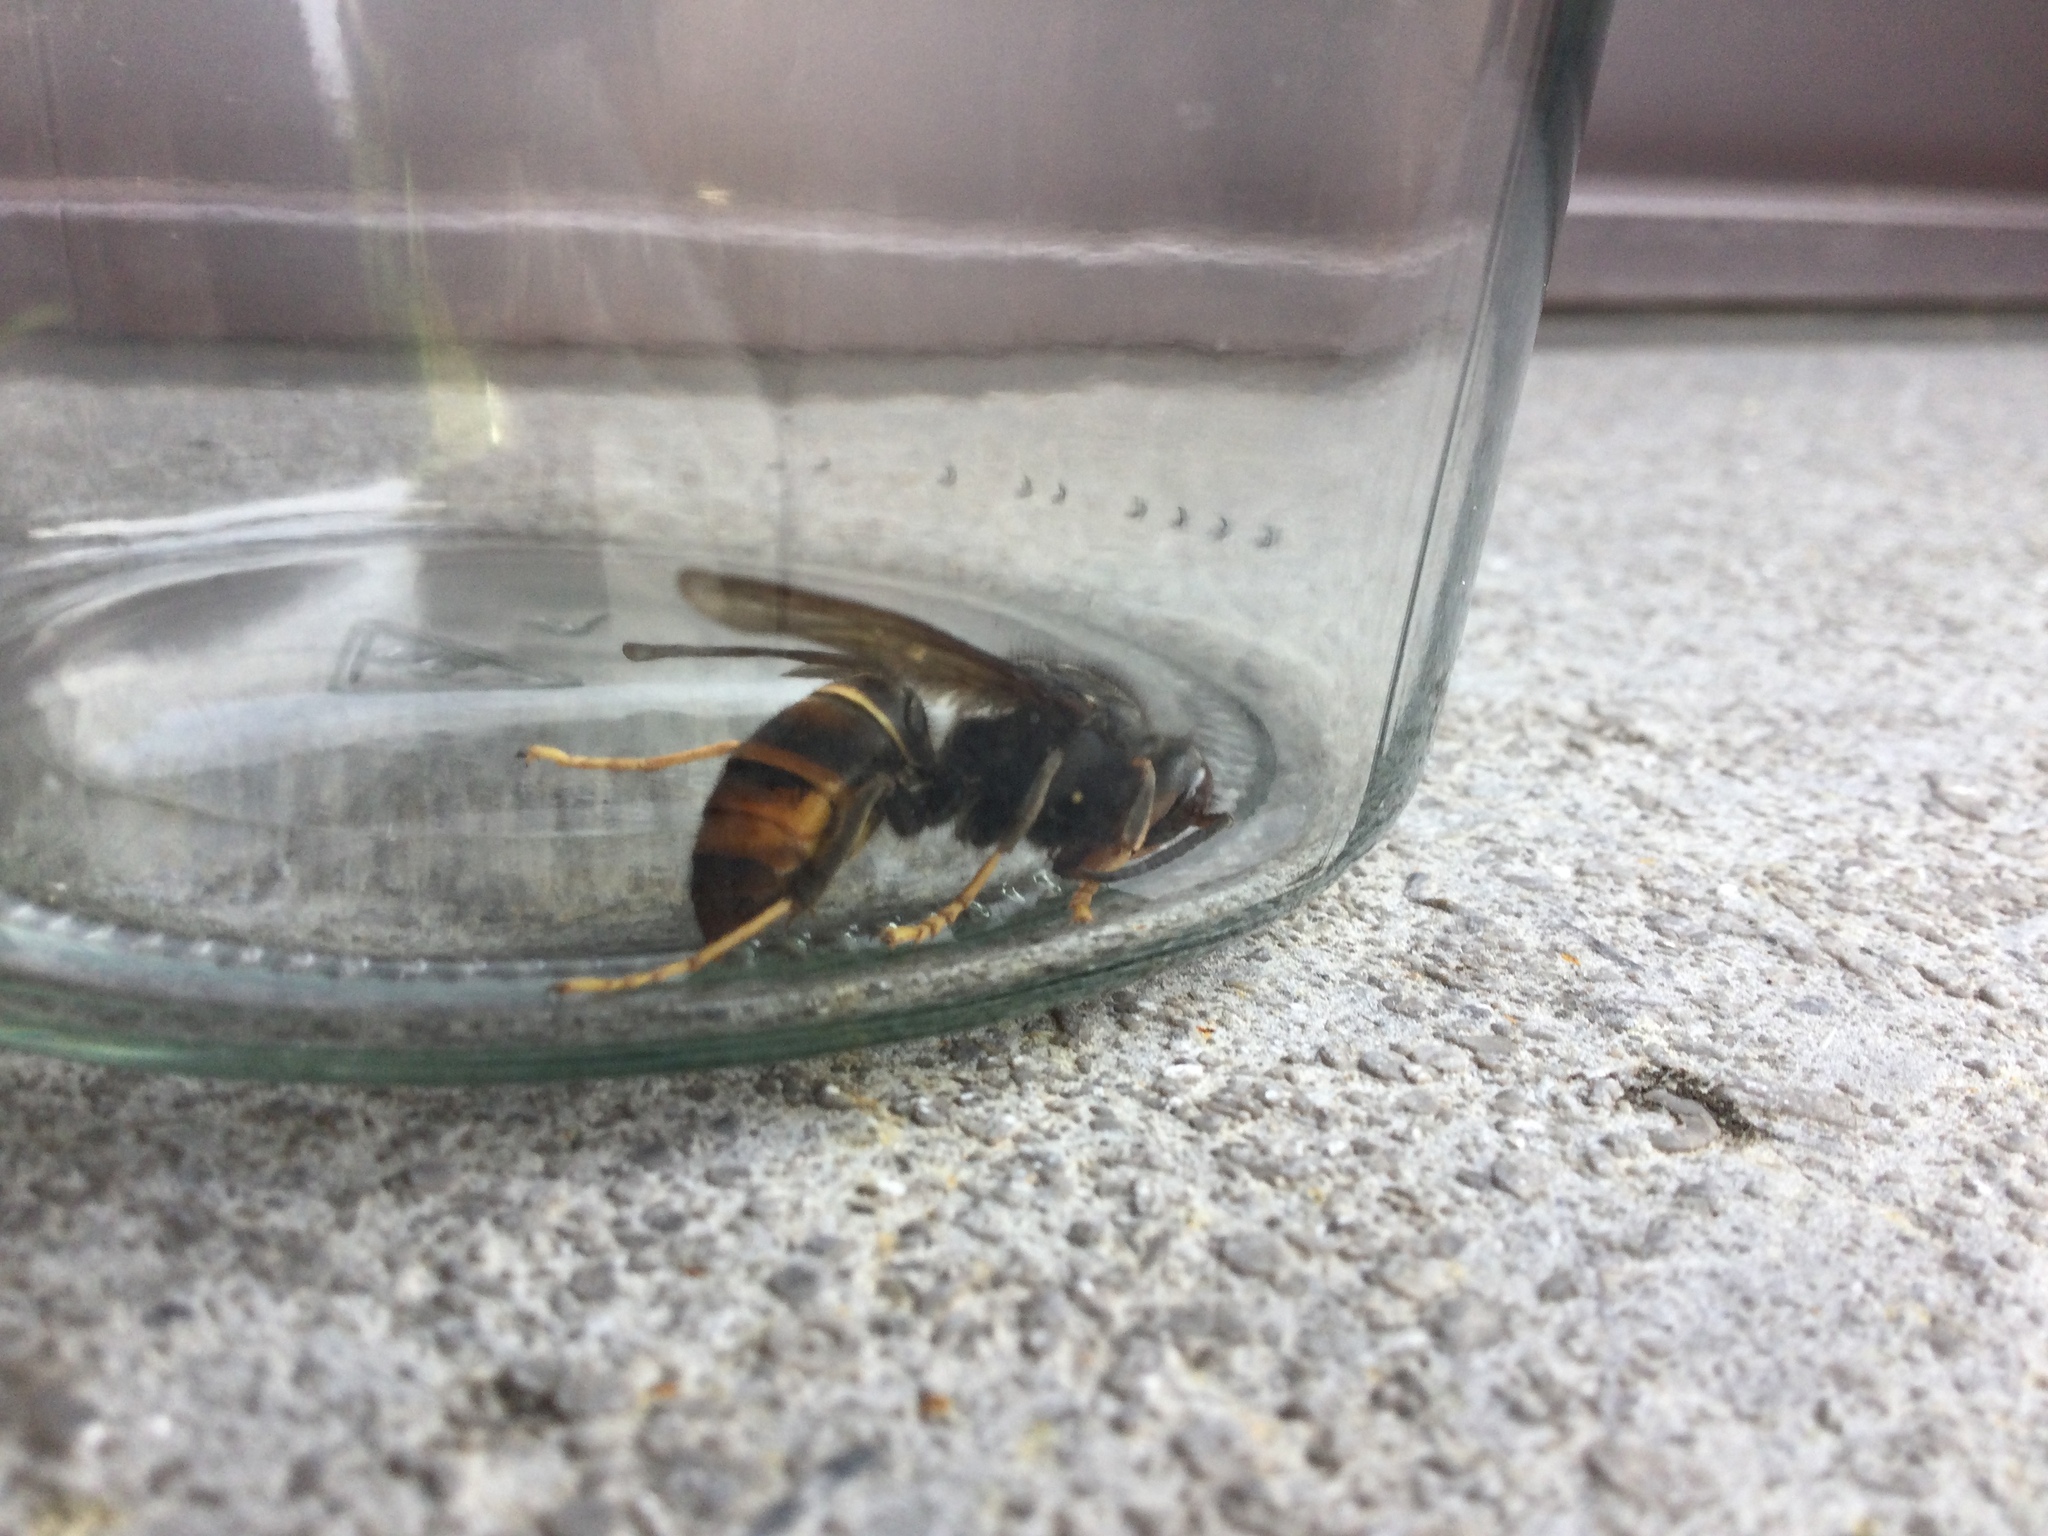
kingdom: Animalia
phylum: Arthropoda
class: Insecta
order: Hymenoptera
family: Vespidae
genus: Vespa
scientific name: Vespa velutina
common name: Asian hornet
